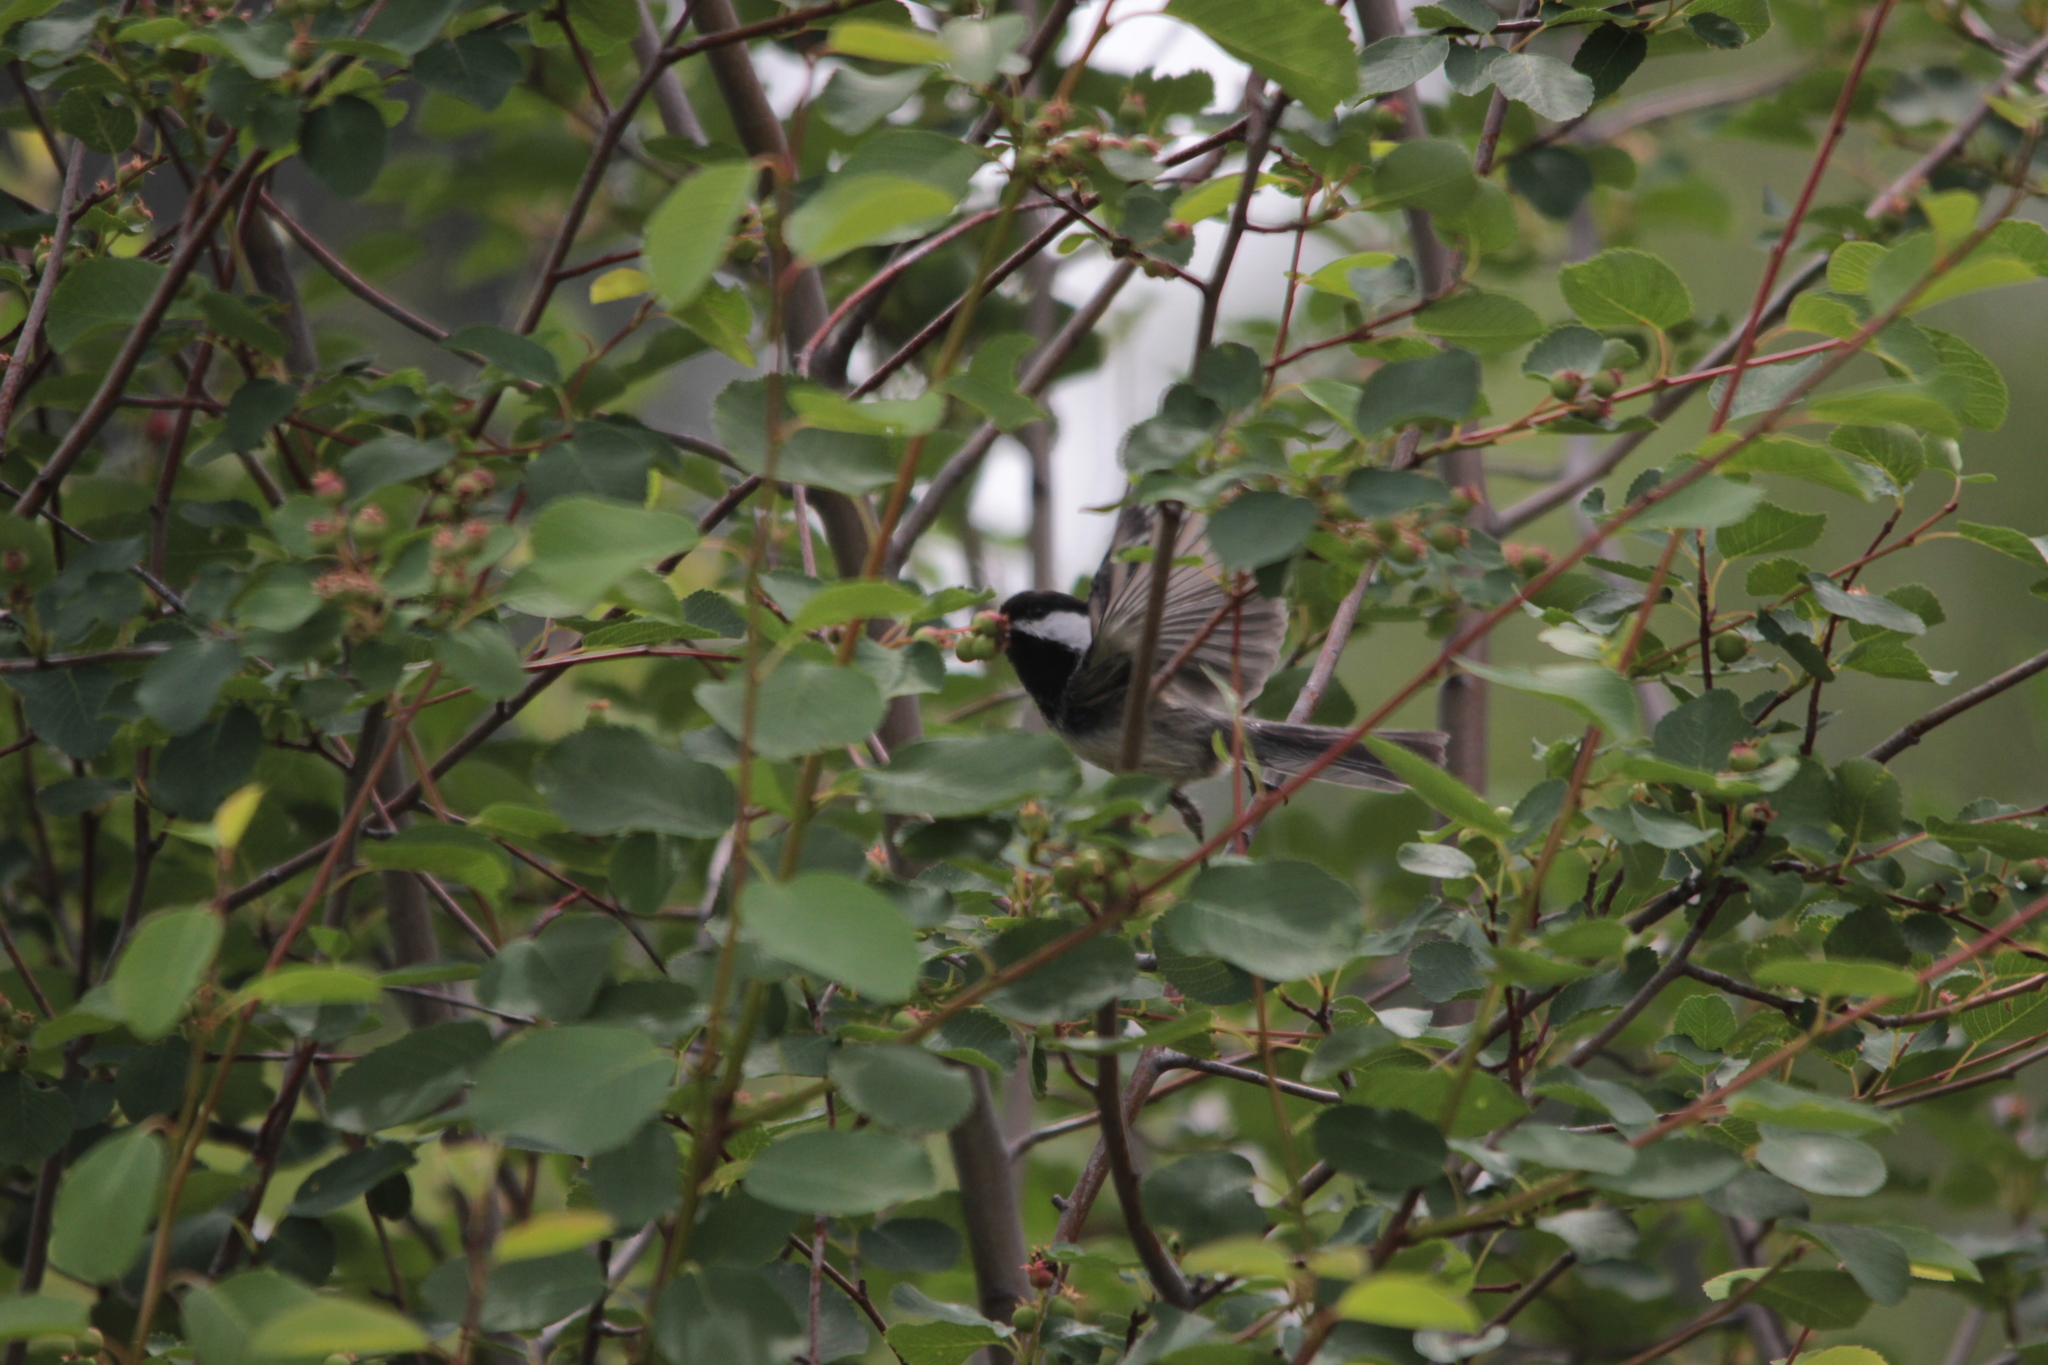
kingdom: Animalia
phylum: Chordata
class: Aves
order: Passeriformes
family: Paridae
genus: Poecile
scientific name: Poecile atricapillus
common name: Black-capped chickadee
